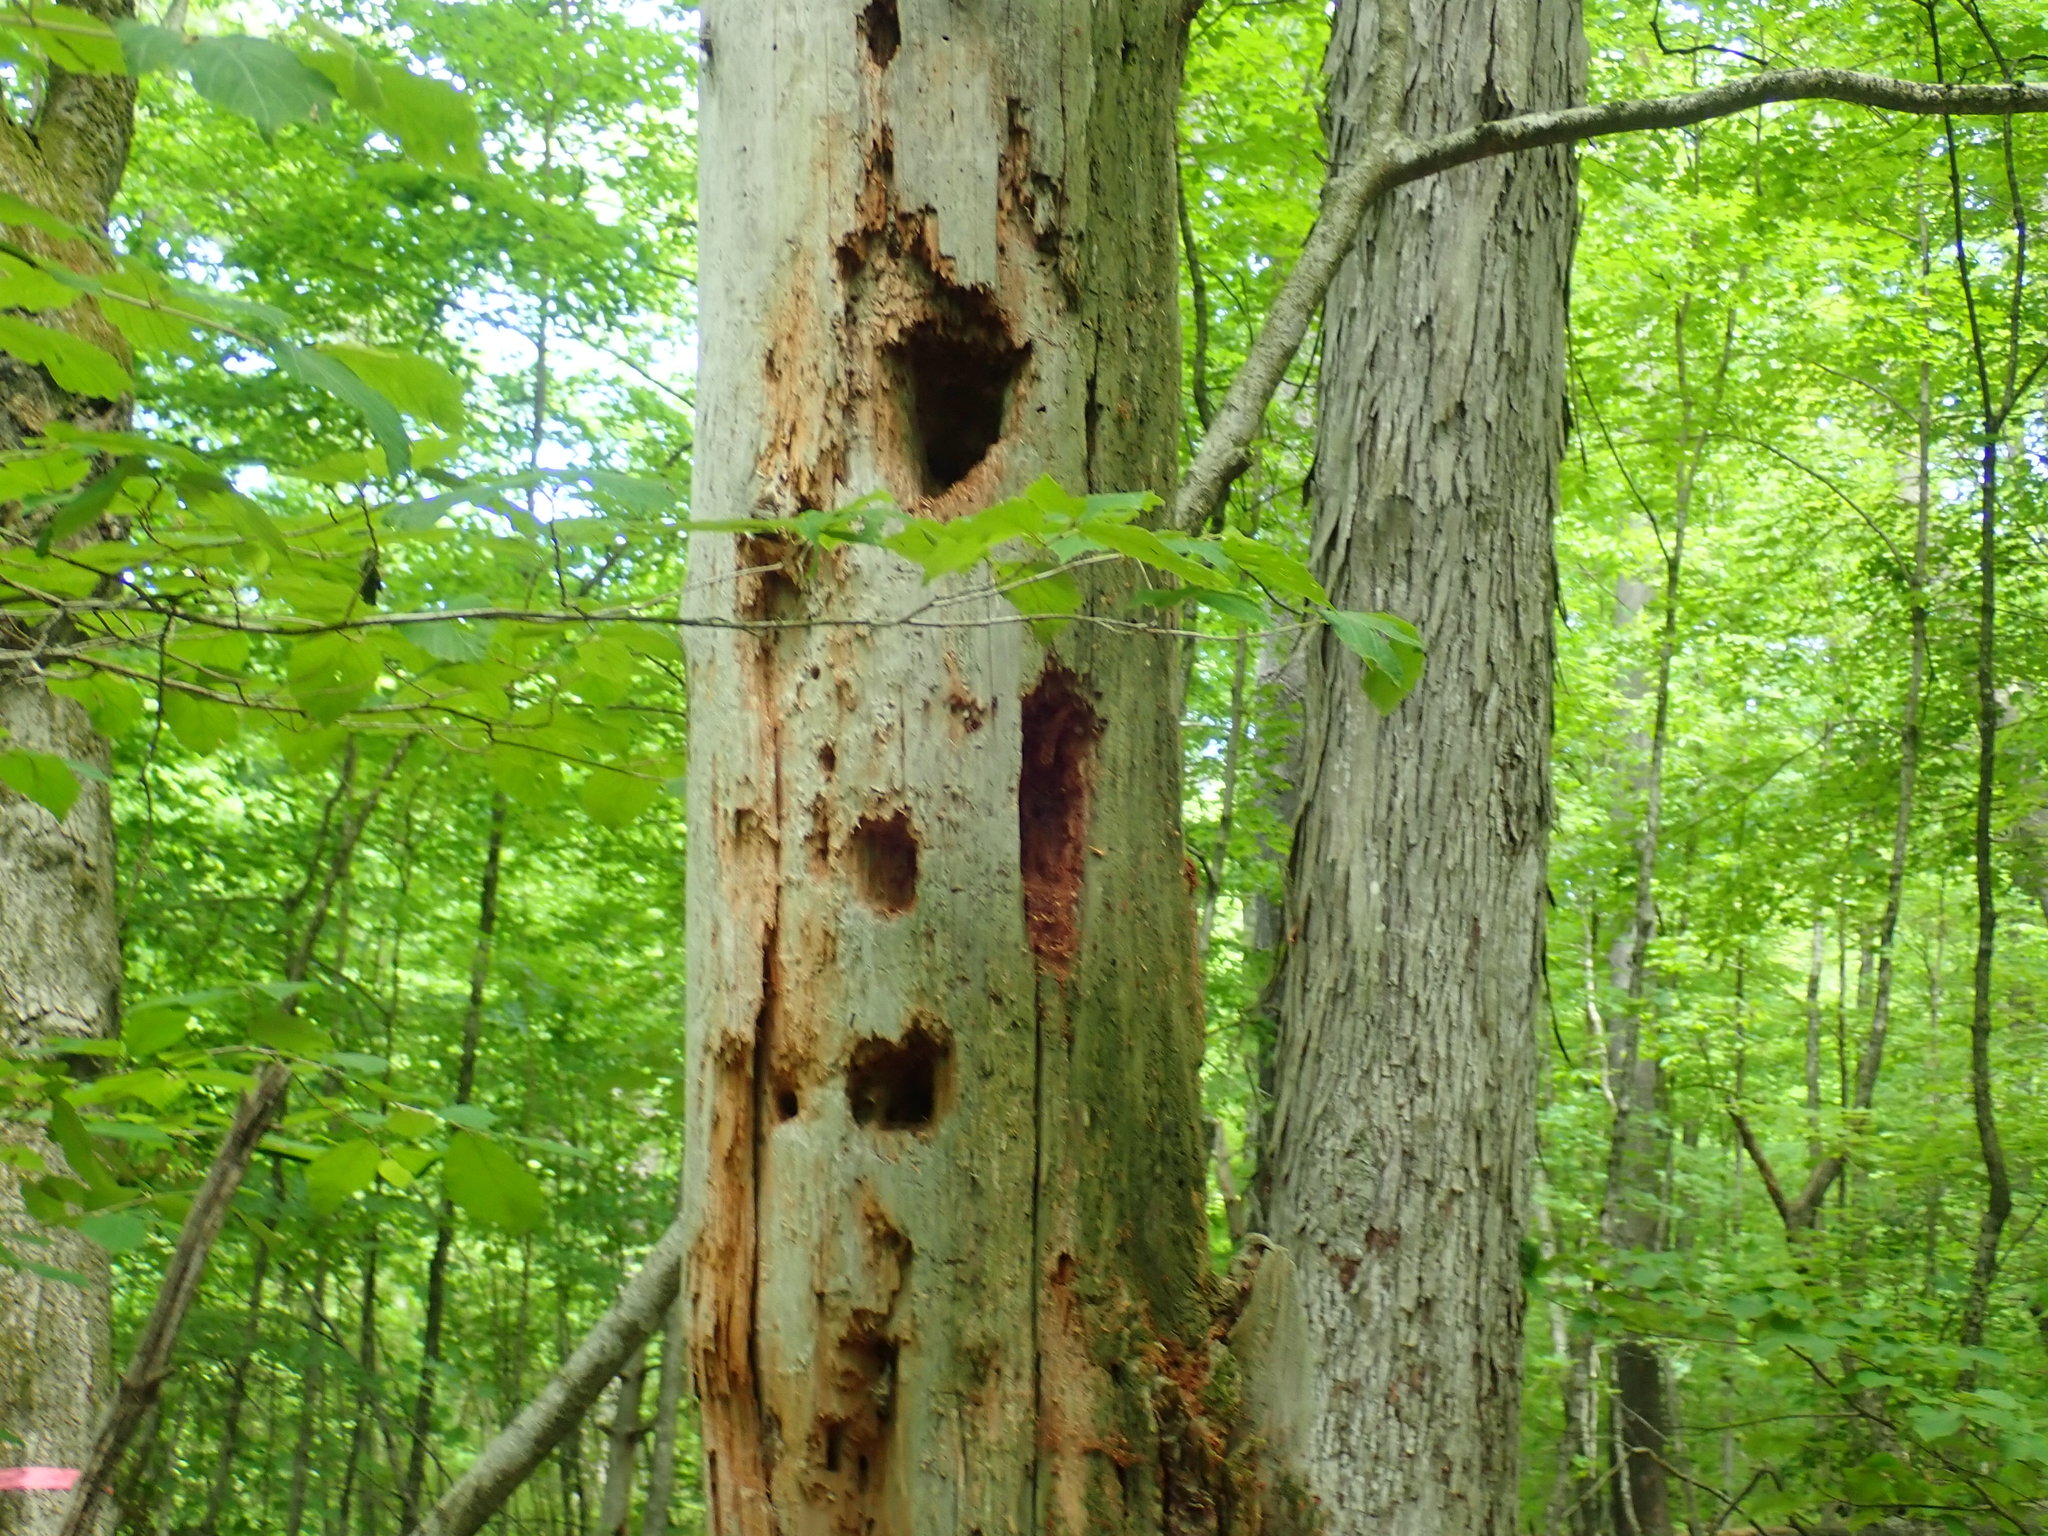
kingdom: Animalia
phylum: Chordata
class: Aves
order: Piciformes
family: Picidae
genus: Dryocopus
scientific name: Dryocopus pileatus
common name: Pileated woodpecker
